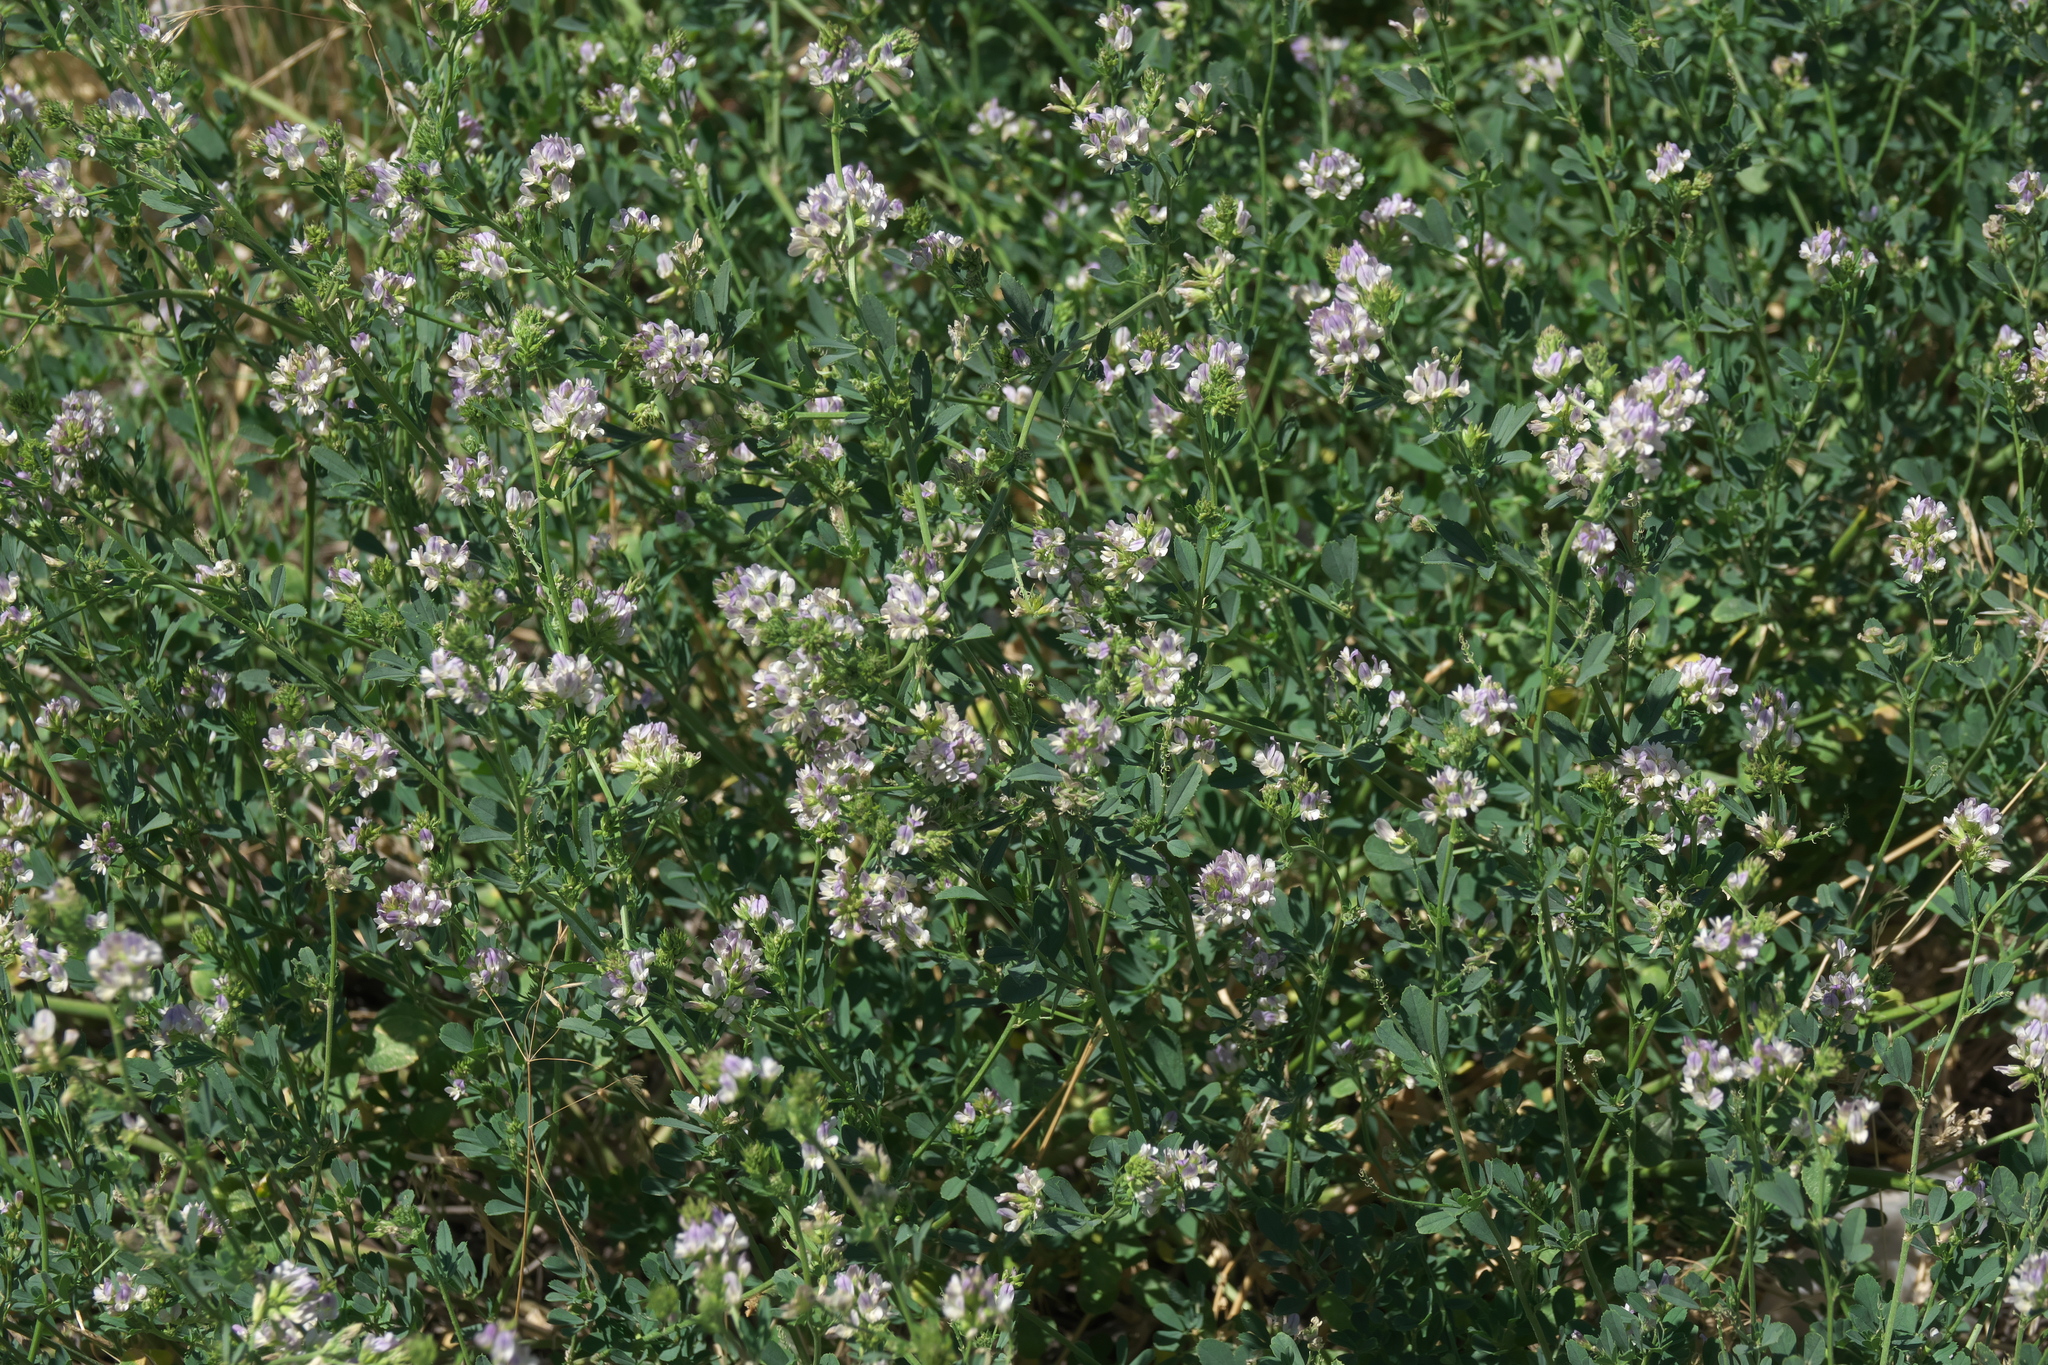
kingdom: Plantae
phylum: Tracheophyta
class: Magnoliopsida
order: Fabales
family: Fabaceae
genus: Medicago
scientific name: Medicago sativa
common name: Alfalfa
